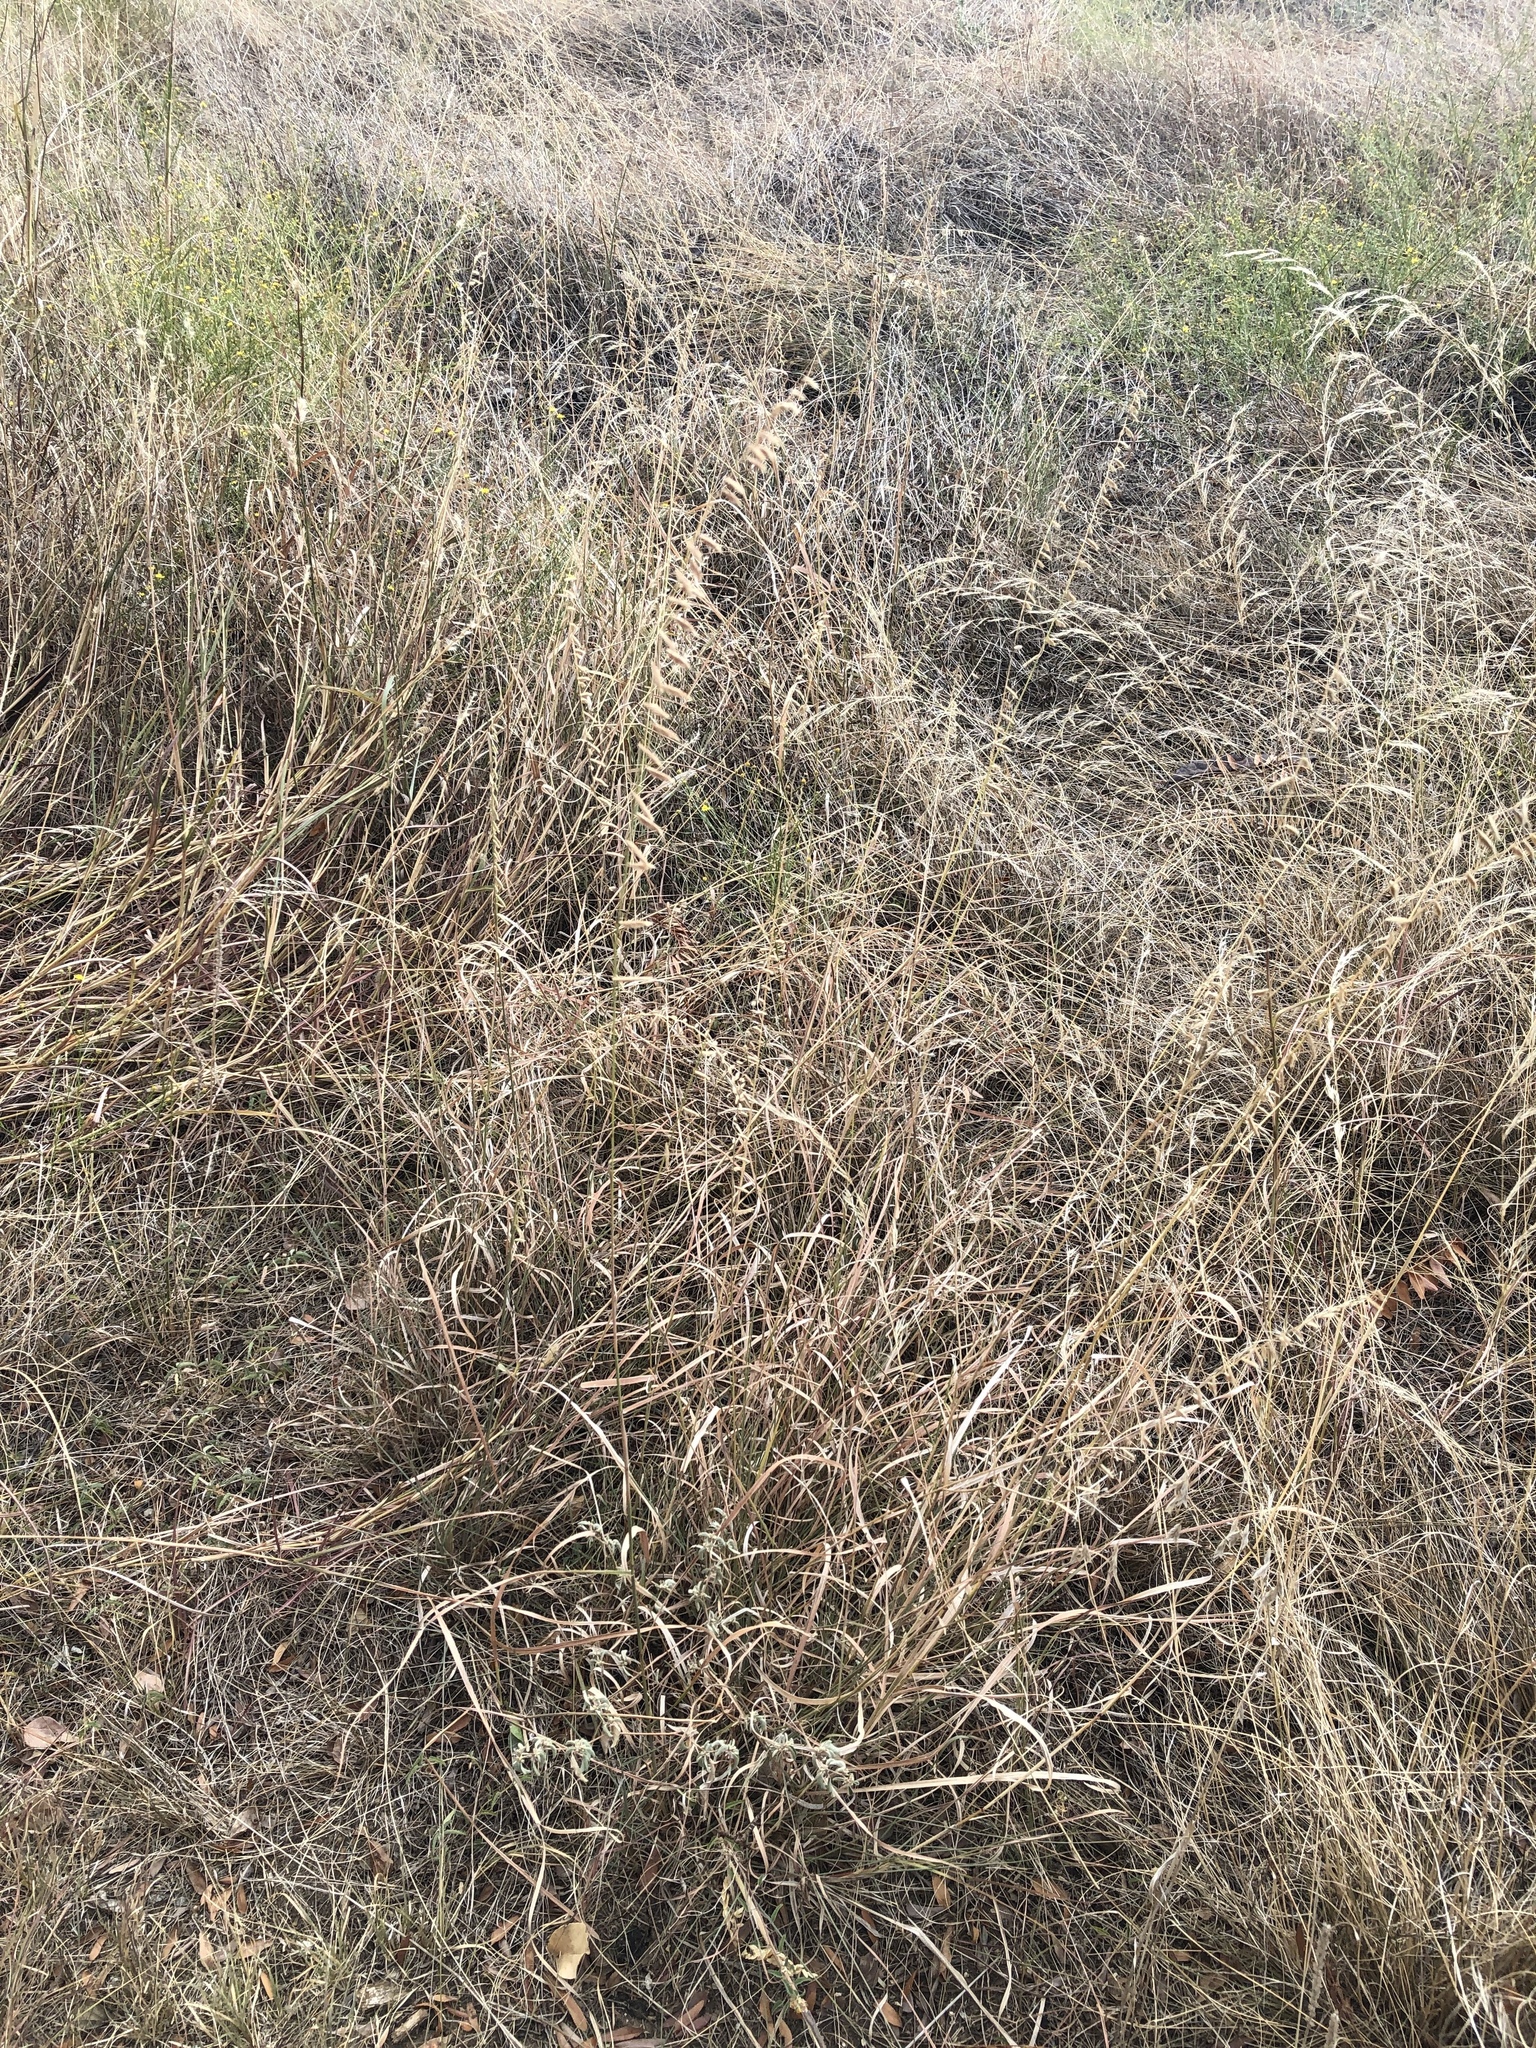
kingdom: Plantae
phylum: Tracheophyta
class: Liliopsida
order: Poales
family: Poaceae
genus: Bouteloua
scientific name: Bouteloua curtipendula
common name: Side-oats grama
